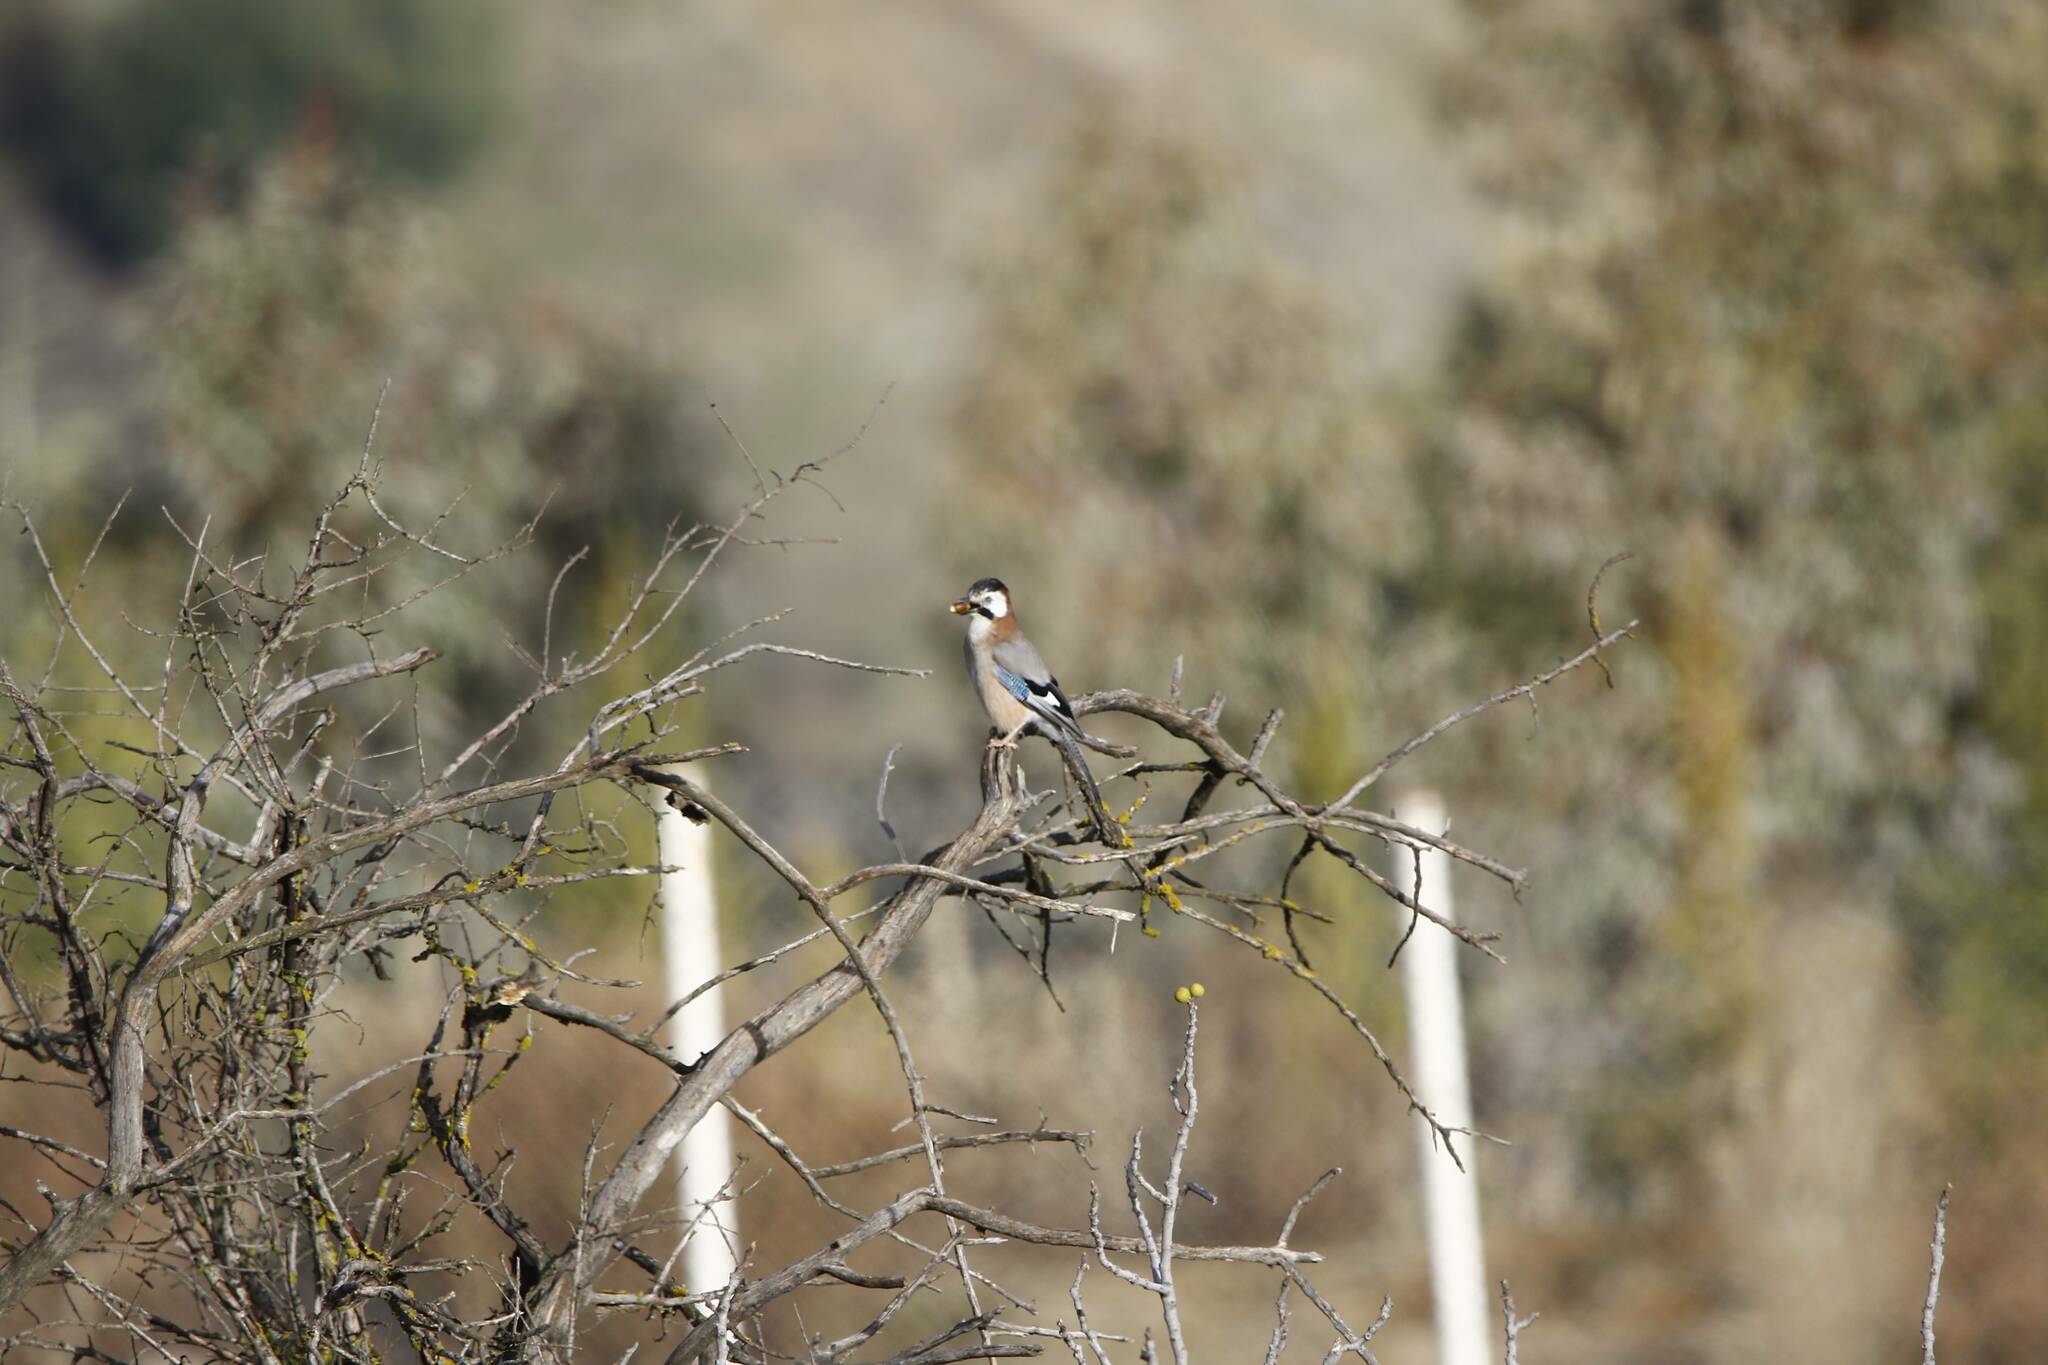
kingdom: Animalia
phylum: Chordata
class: Aves
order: Passeriformes
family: Corvidae
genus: Garrulus
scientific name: Garrulus glandarius
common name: Eurasian jay
